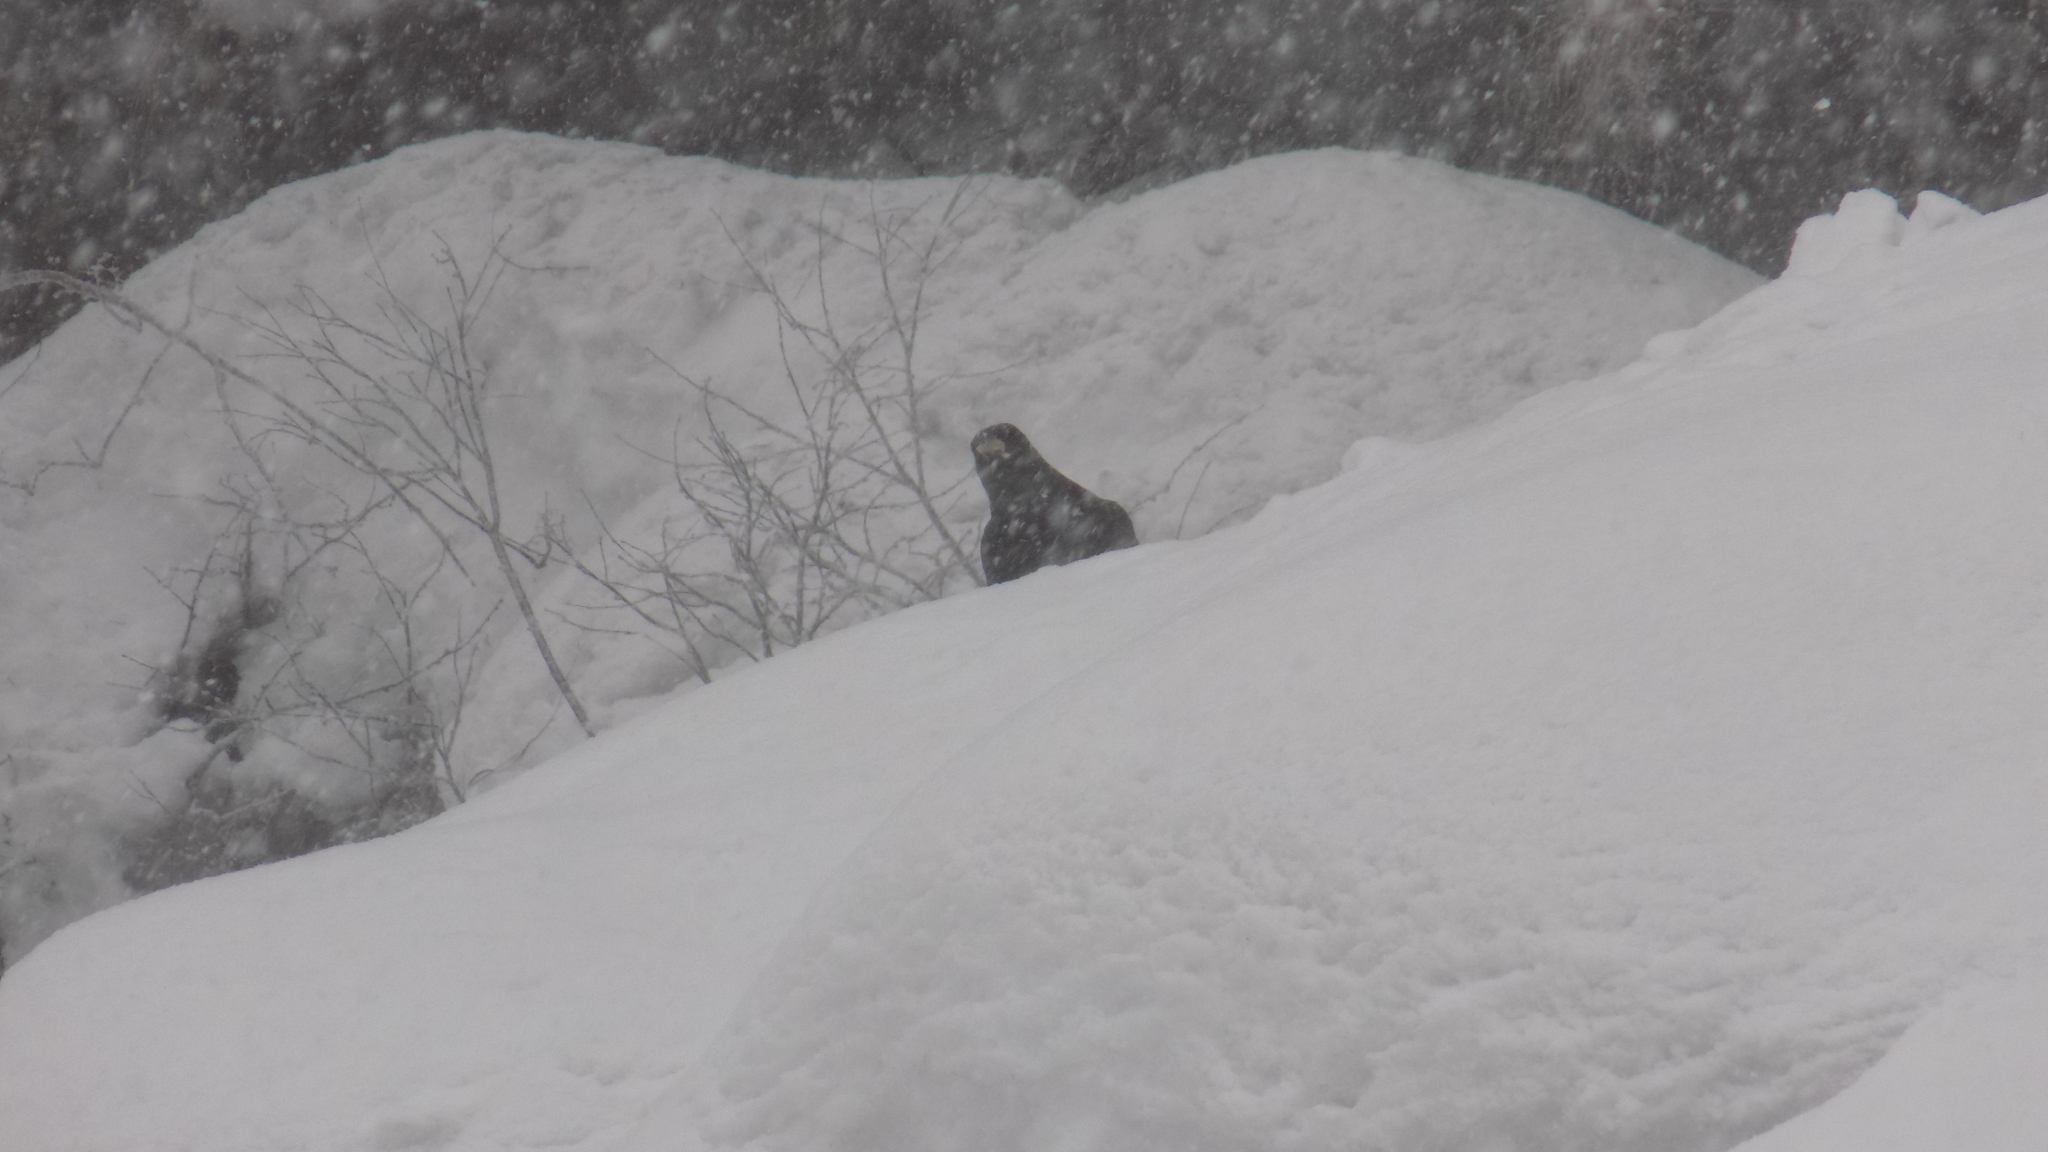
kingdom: Animalia
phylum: Chordata
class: Aves
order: Passeriformes
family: Corvidae
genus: Corvus
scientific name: Corvus corax
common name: Common raven
